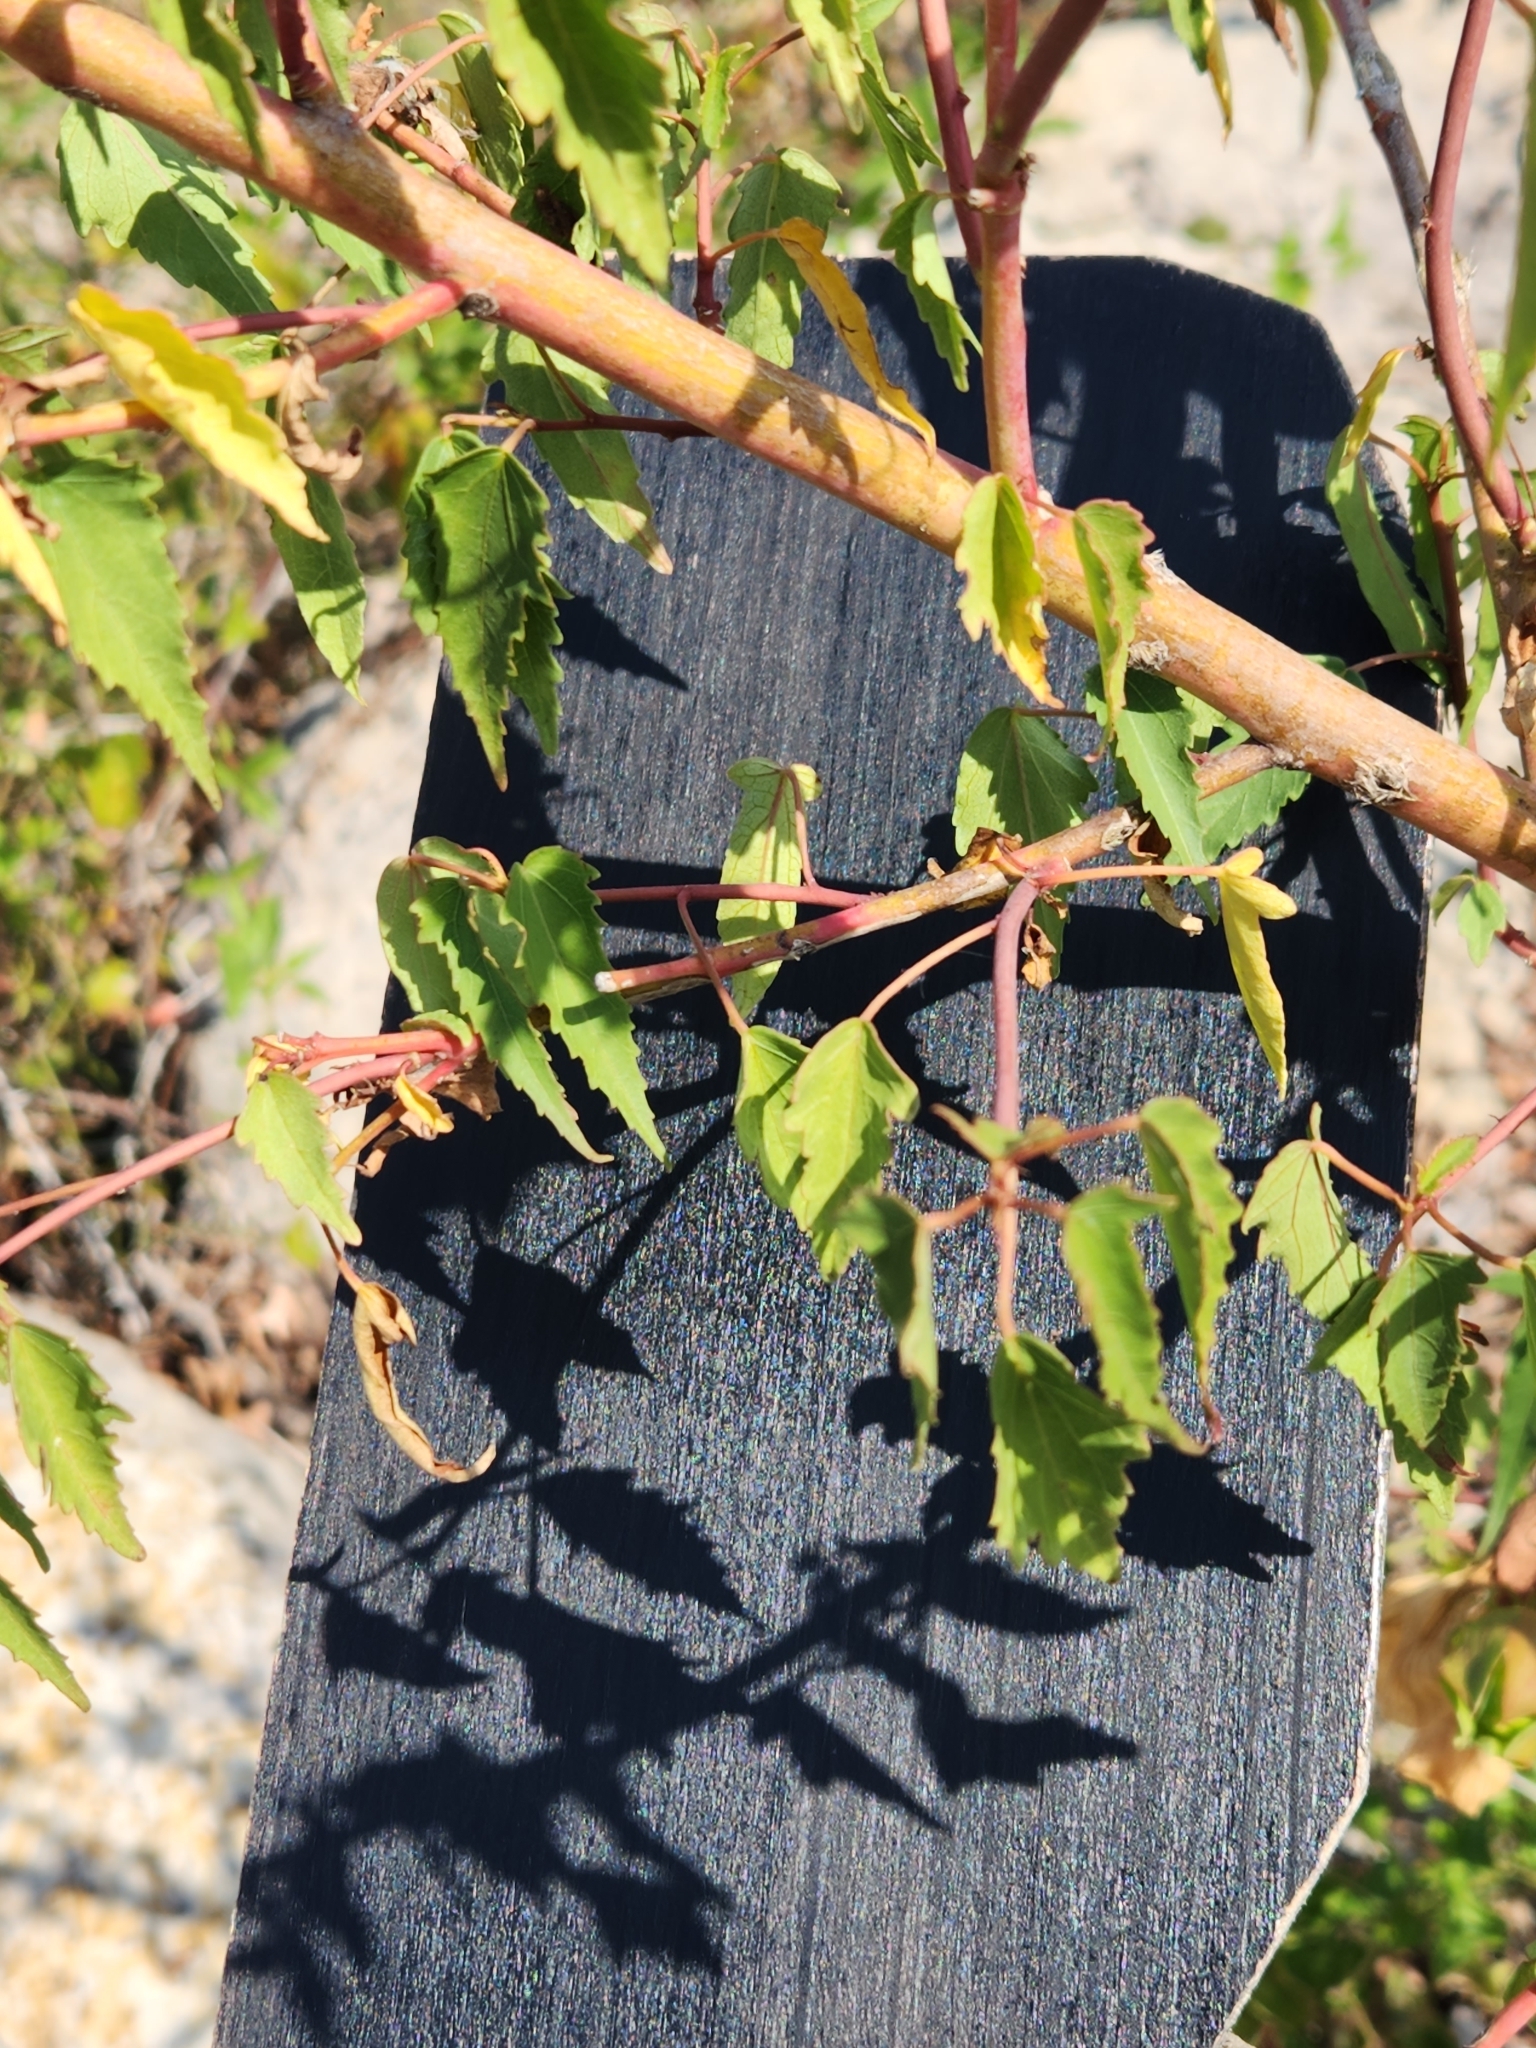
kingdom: Plantae
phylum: Tracheophyta
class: Magnoliopsida
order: Malvales
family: Malvaceae
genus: Hibiscus
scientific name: Hibiscus laevis
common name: Scarlet rose-mallow
